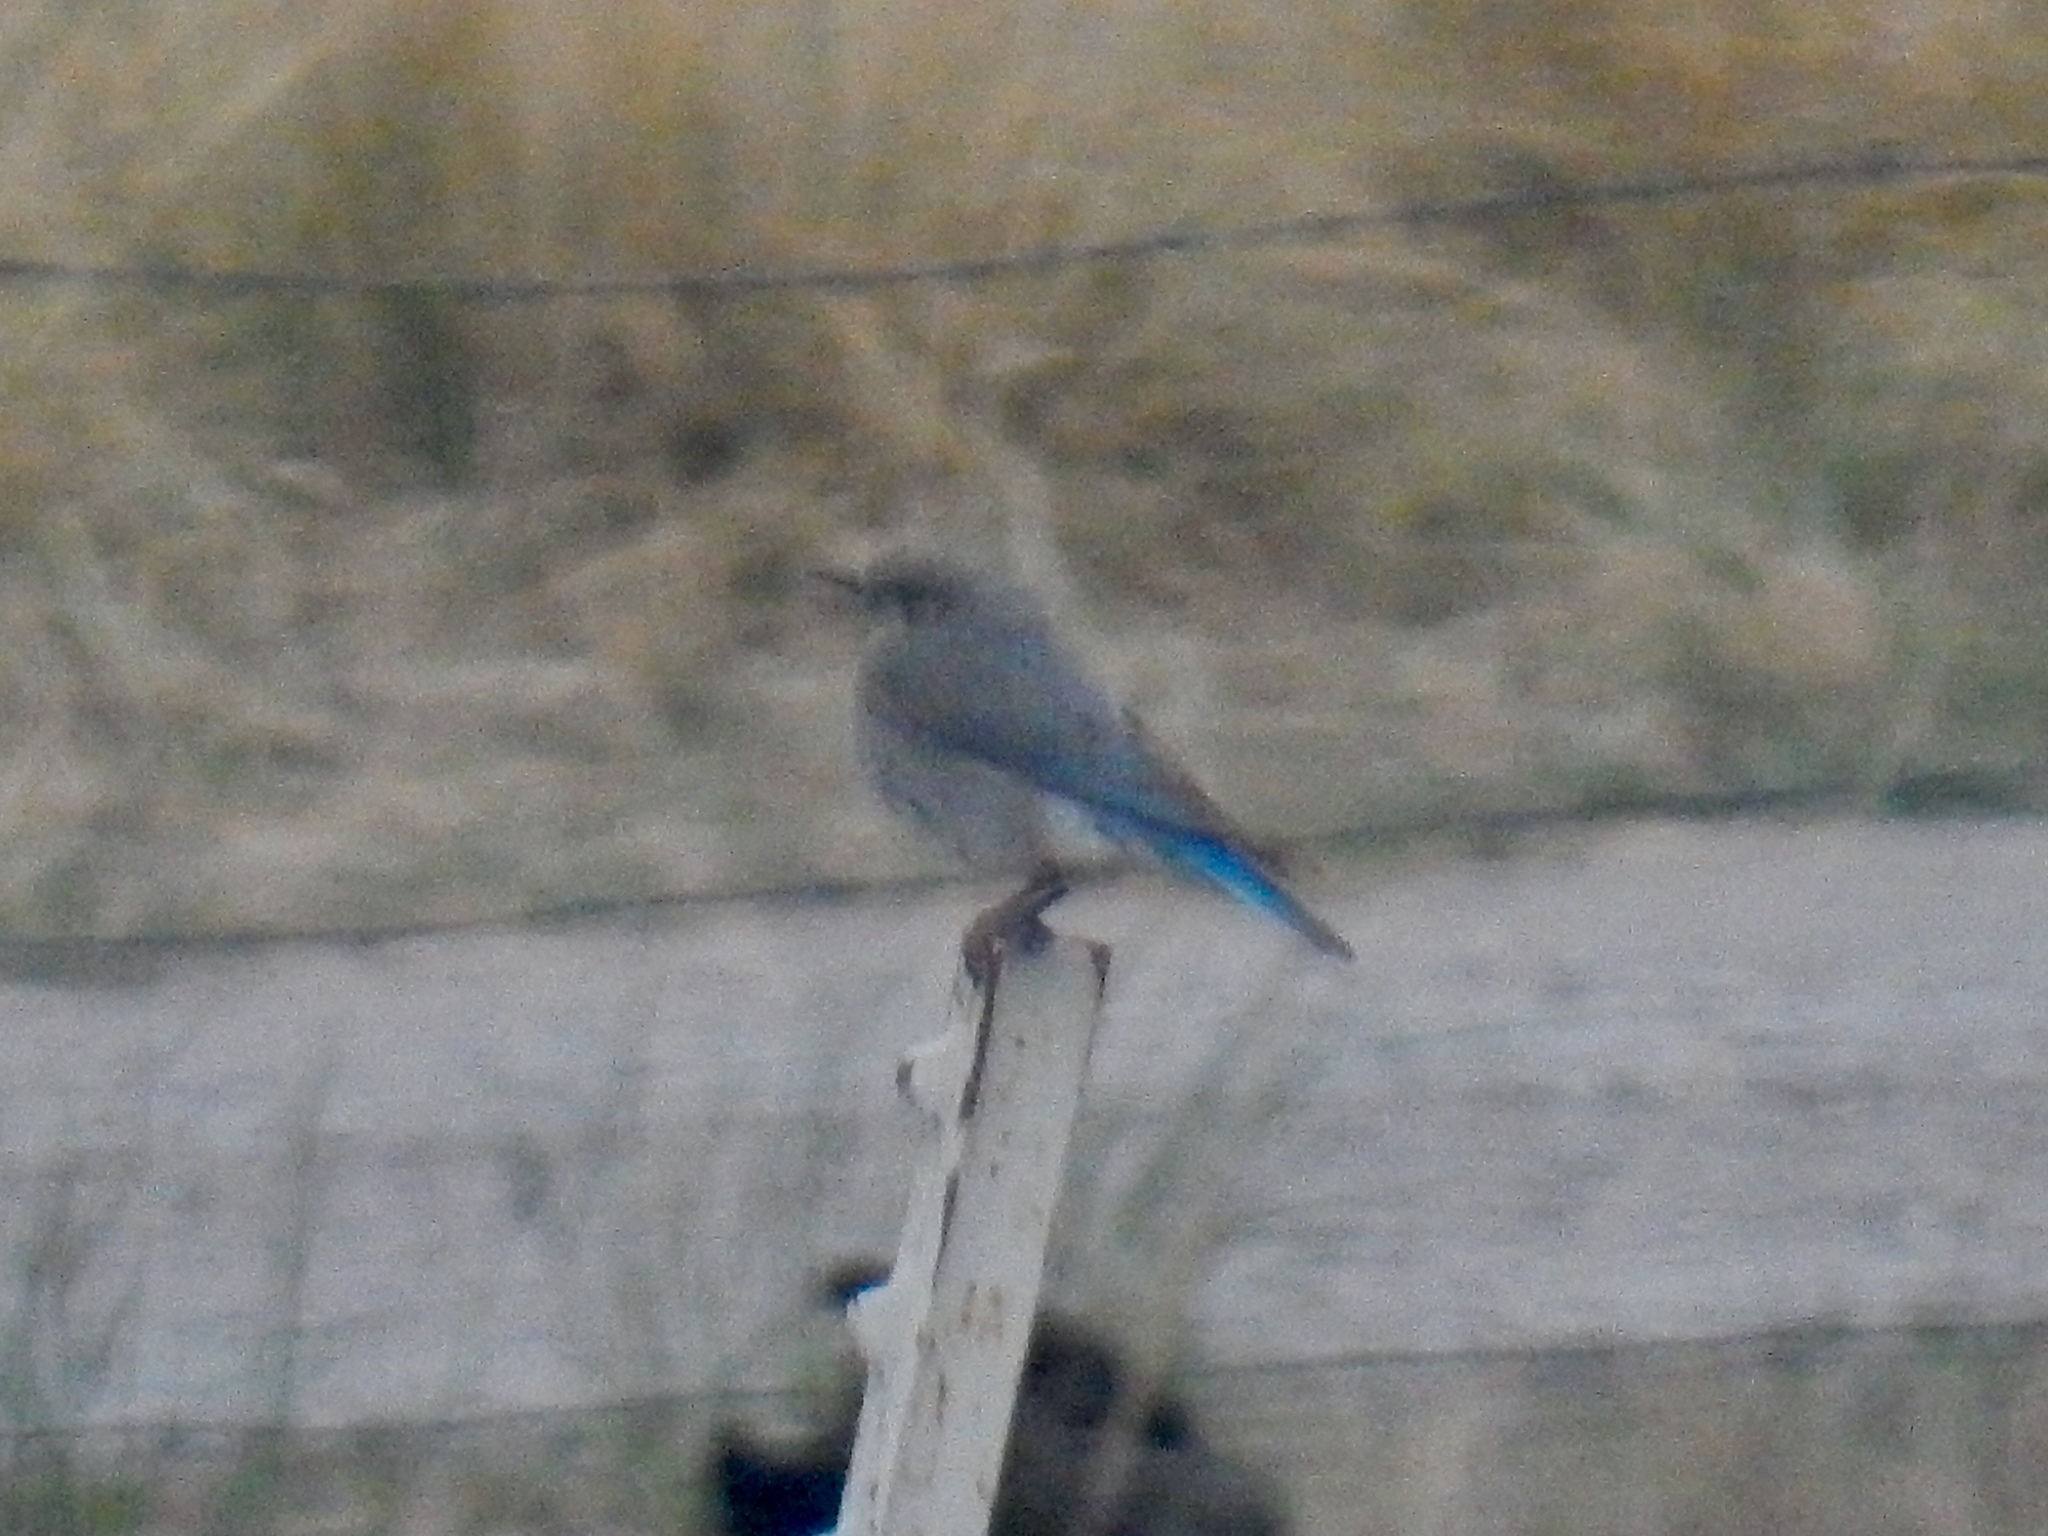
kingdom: Animalia
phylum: Chordata
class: Aves
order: Passeriformes
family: Turdidae
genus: Sialia
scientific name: Sialia currucoides
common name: Mountain bluebird
